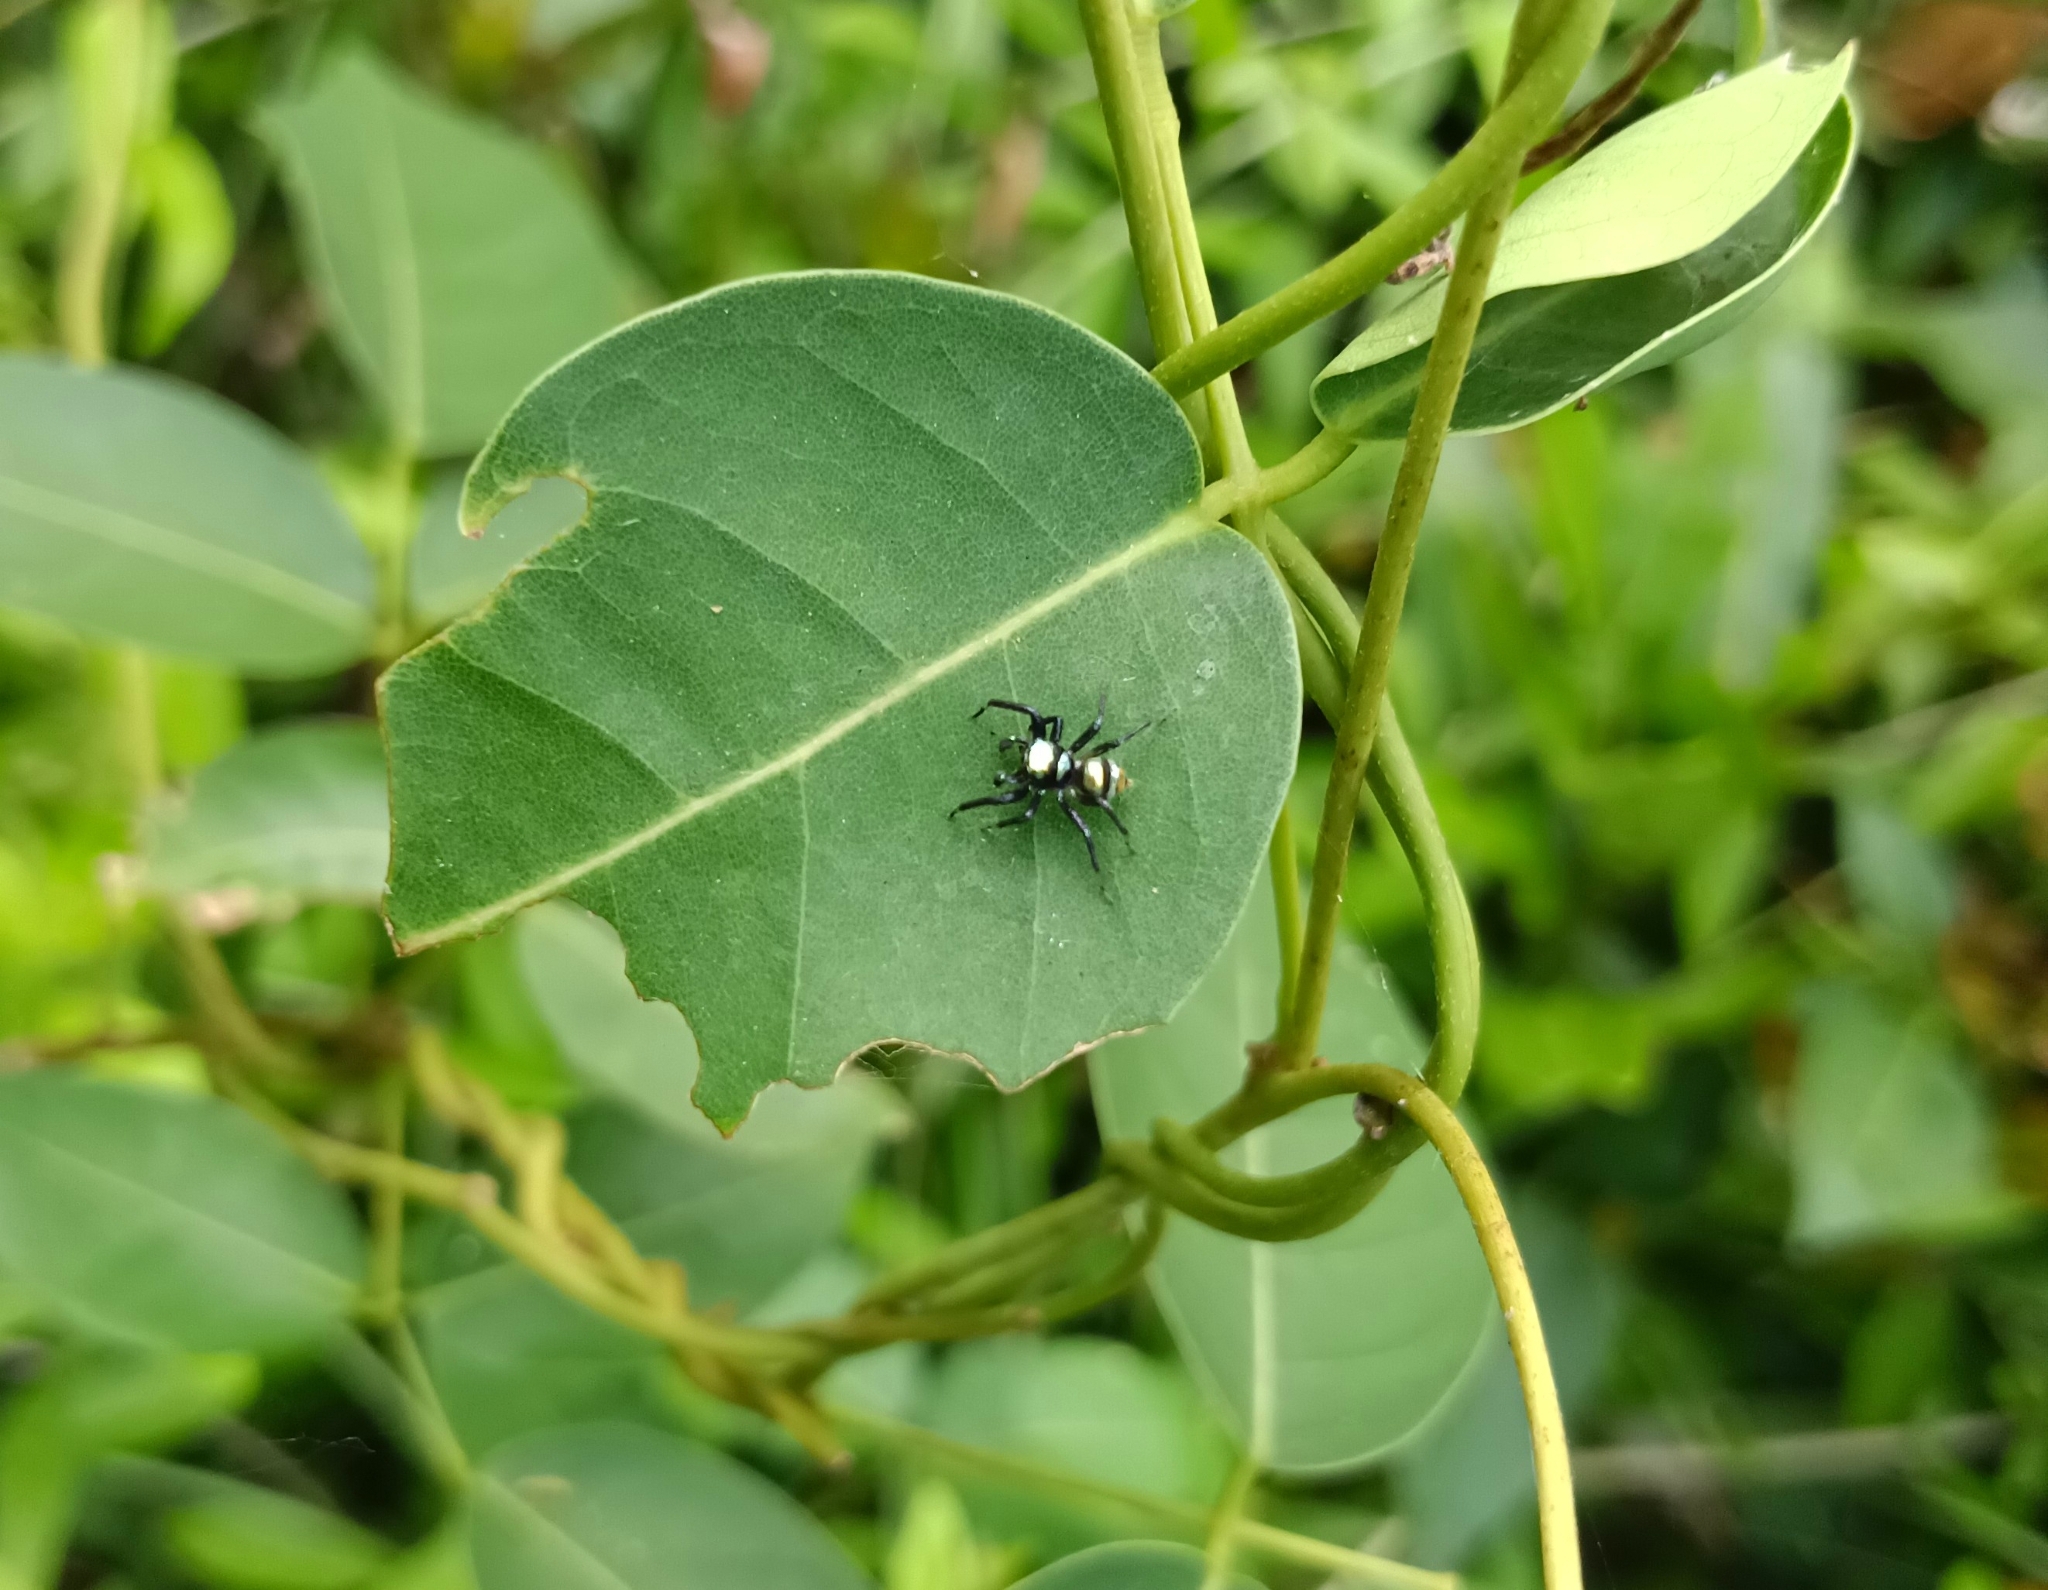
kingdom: Animalia
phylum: Arthropoda
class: Arachnida
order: Araneae
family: Salticidae
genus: Phintella
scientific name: Phintella vittata
